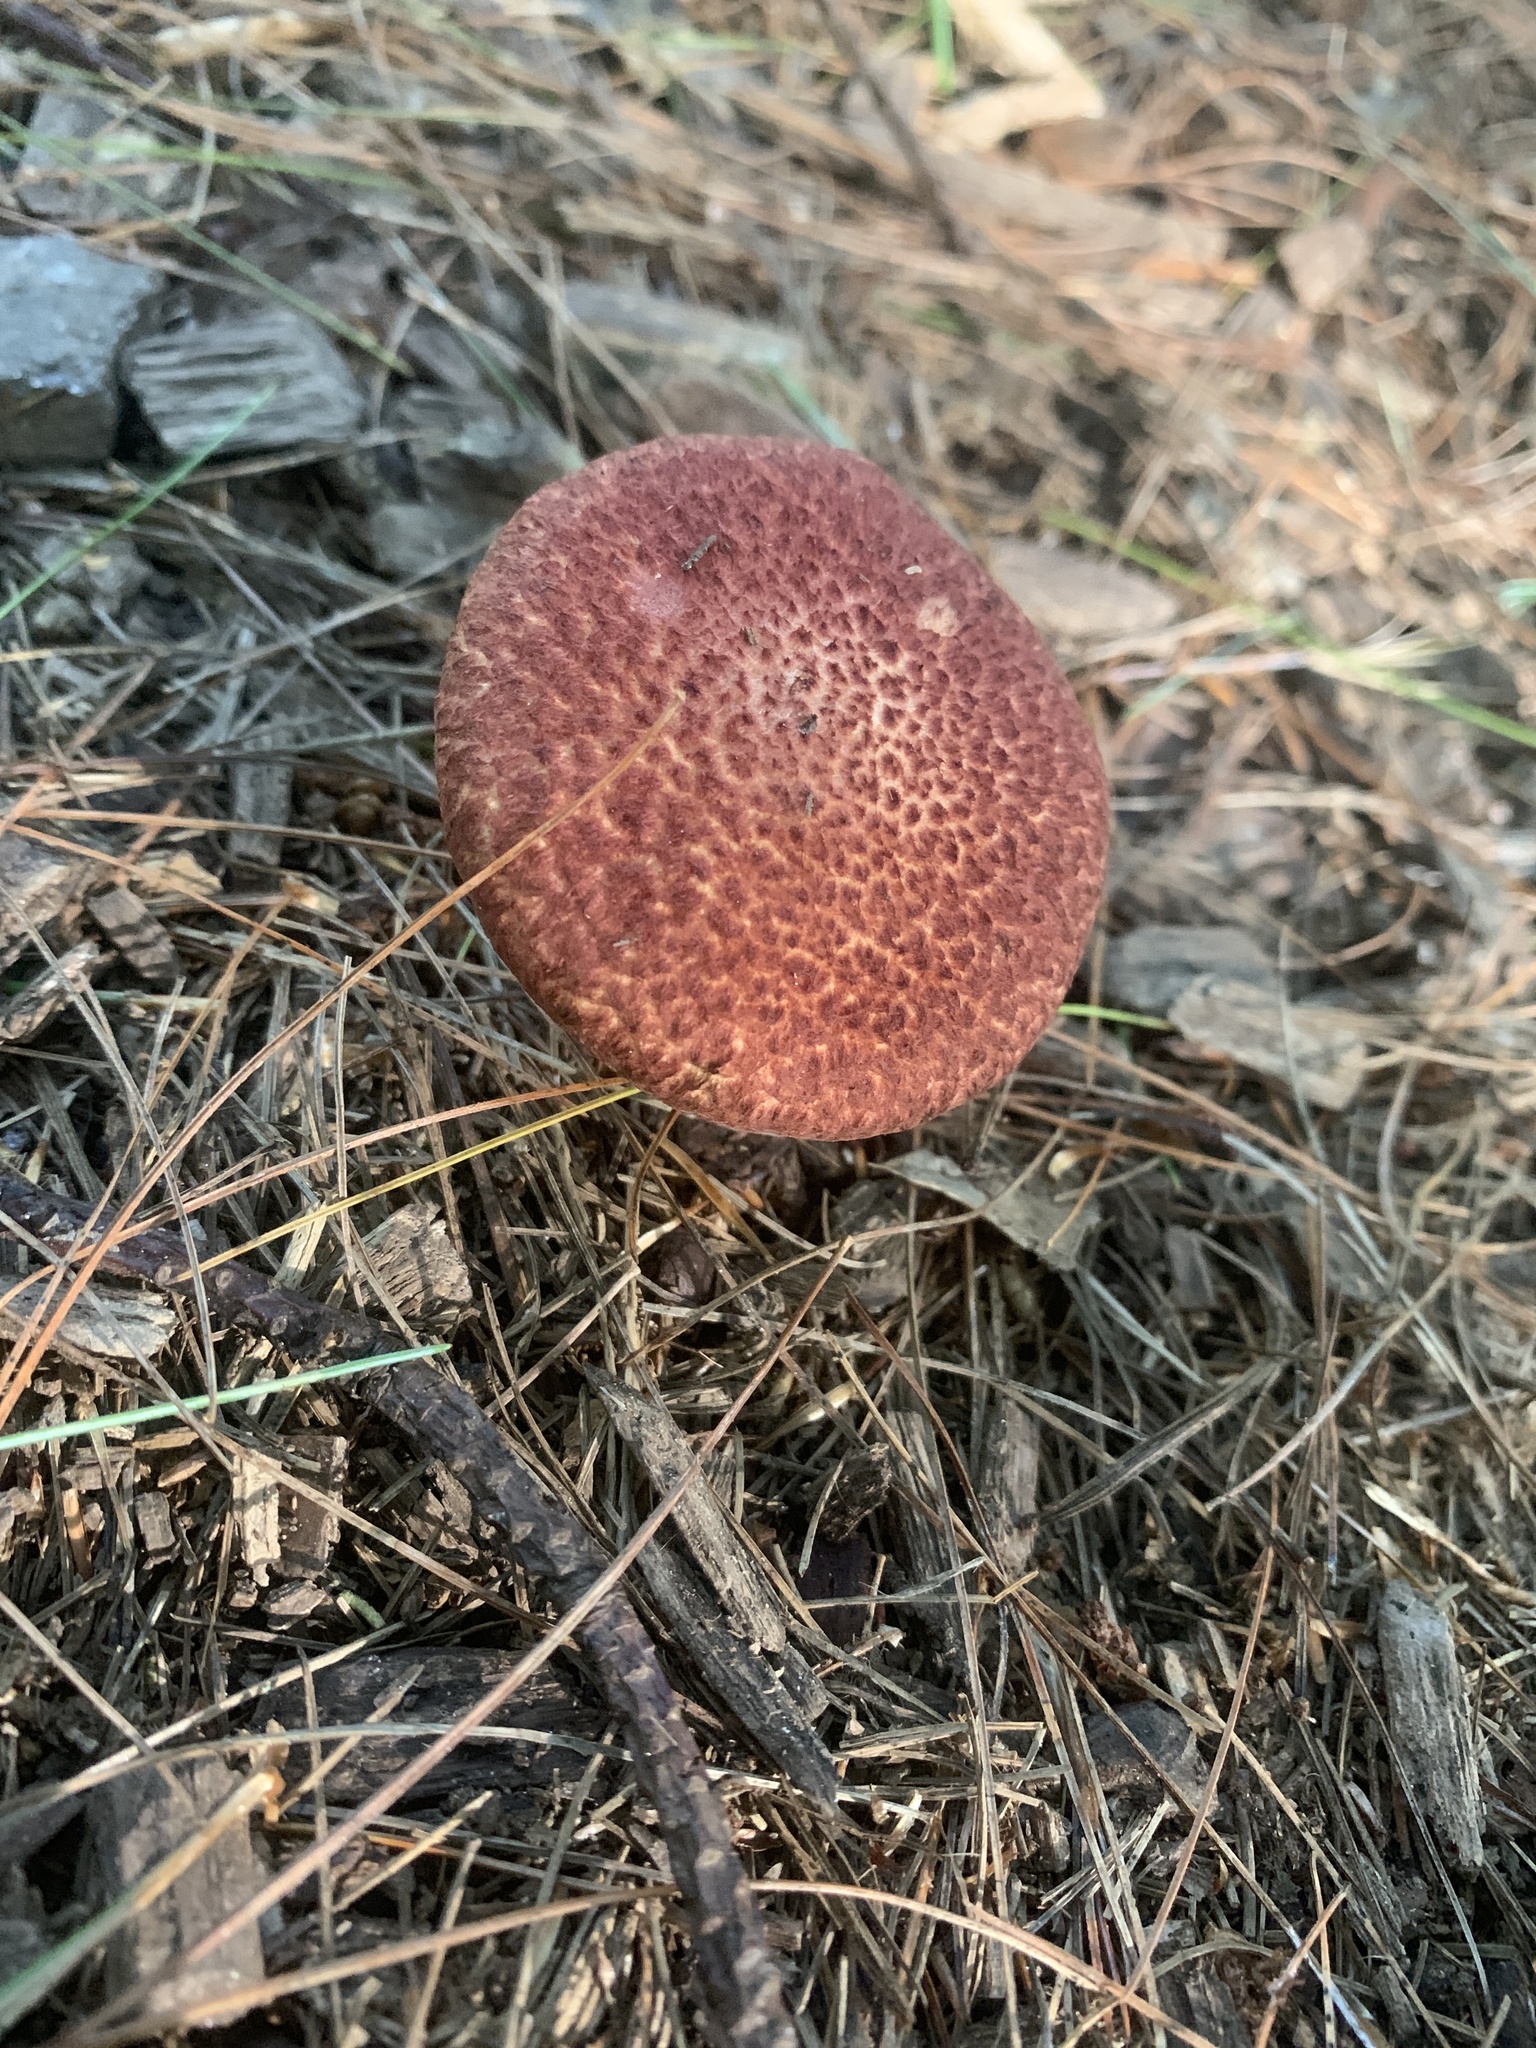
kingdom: Fungi
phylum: Basidiomycota
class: Agaricomycetes
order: Boletales
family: Suillaceae
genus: Suillus
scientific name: Suillus spraguei
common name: Painted suillus
